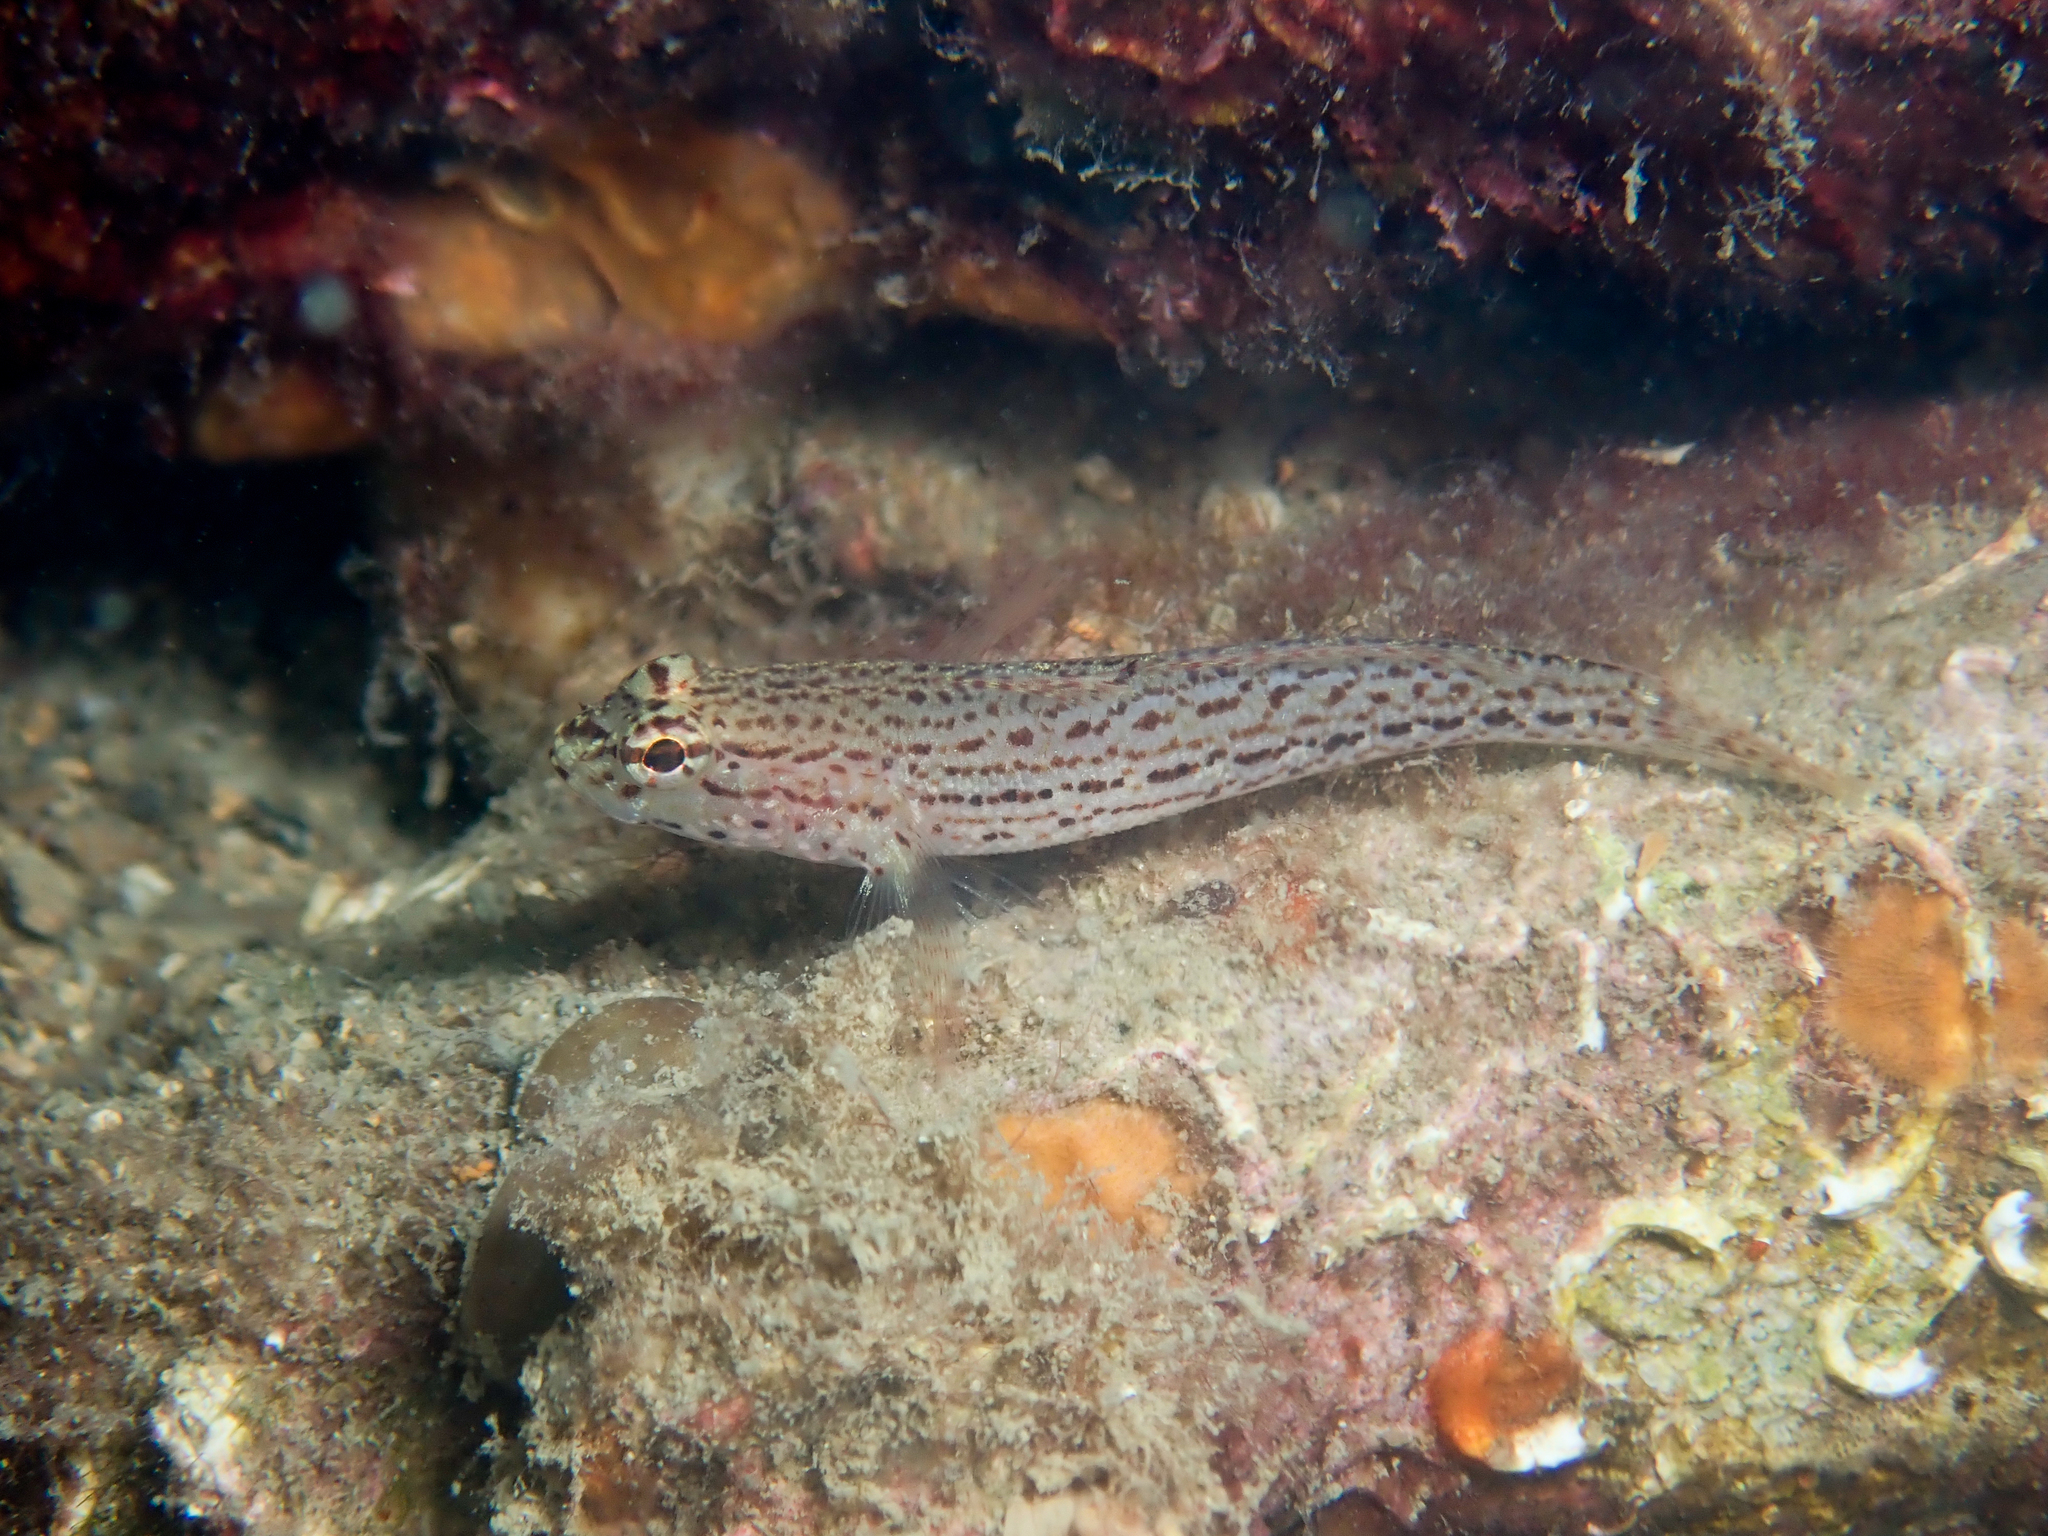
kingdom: Animalia
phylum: Chordata
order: Perciformes
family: Gobiidae
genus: Gobius
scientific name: Gobius fallax
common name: Sarato's goby
